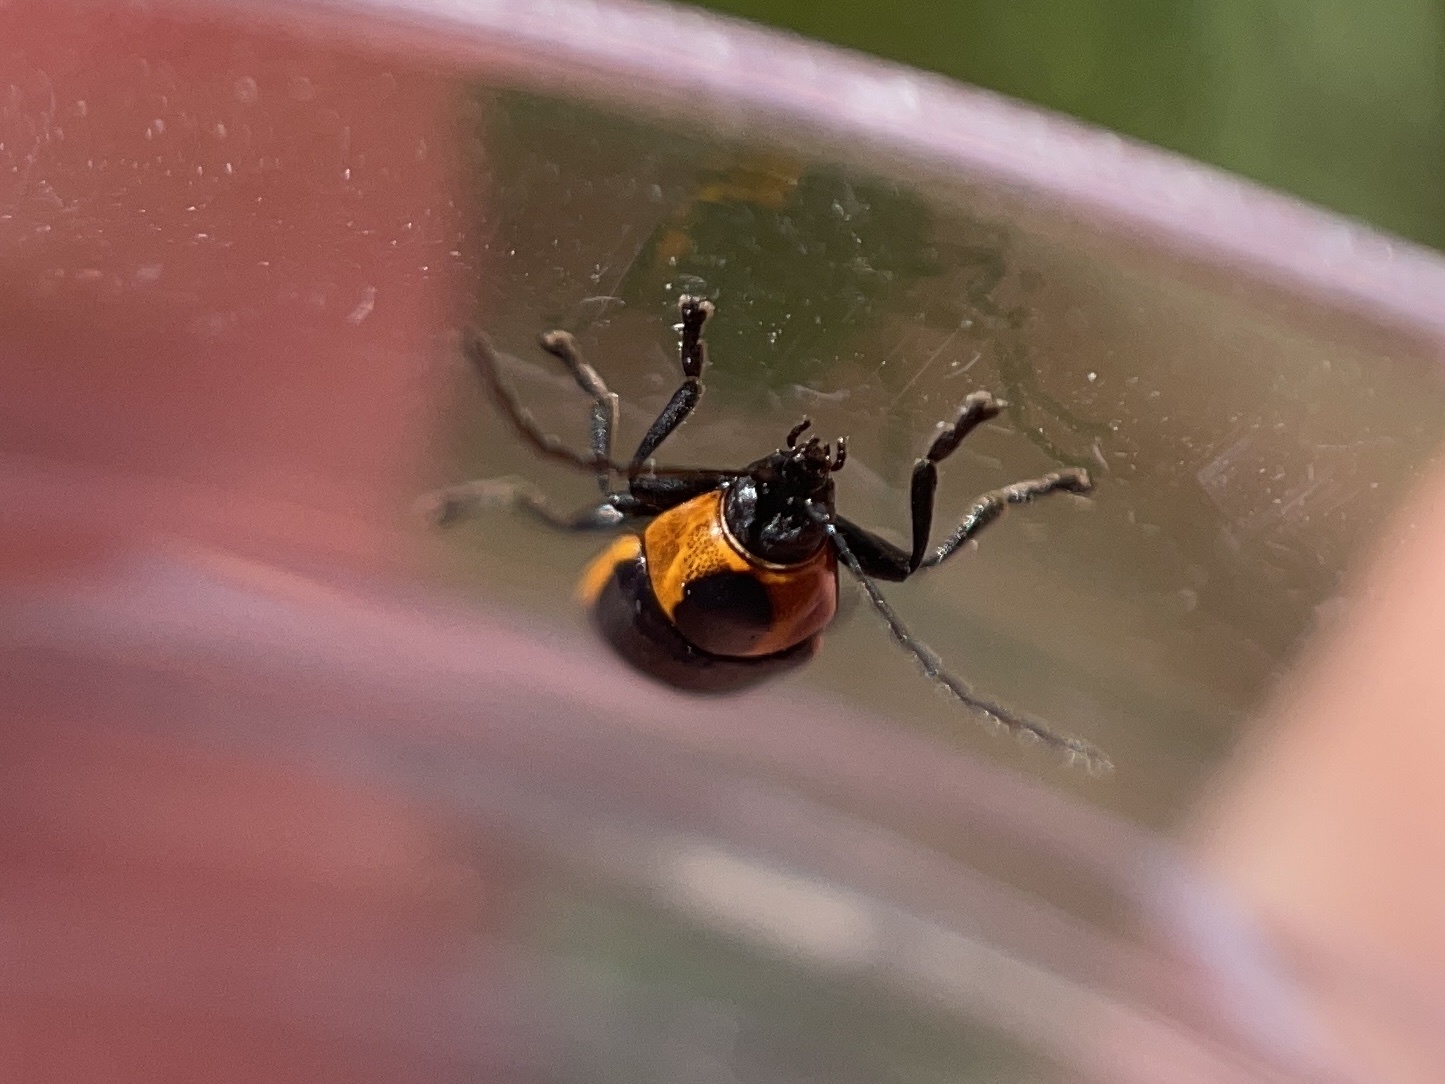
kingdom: Animalia
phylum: Arthropoda
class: Insecta
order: Coleoptera
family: Chrysomelidae
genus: Bassareus
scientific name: Bassareus lituratus
